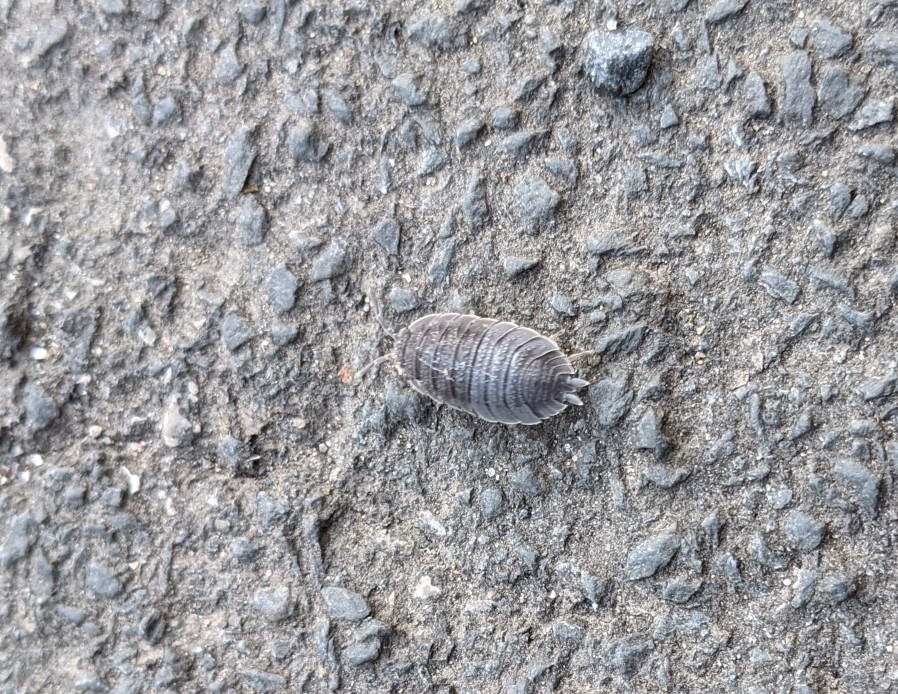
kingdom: Animalia
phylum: Arthropoda
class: Malacostraca
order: Isopoda
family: Porcellionidae
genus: Porcellio
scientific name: Porcellio scaber
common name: Common rough woodlouse
